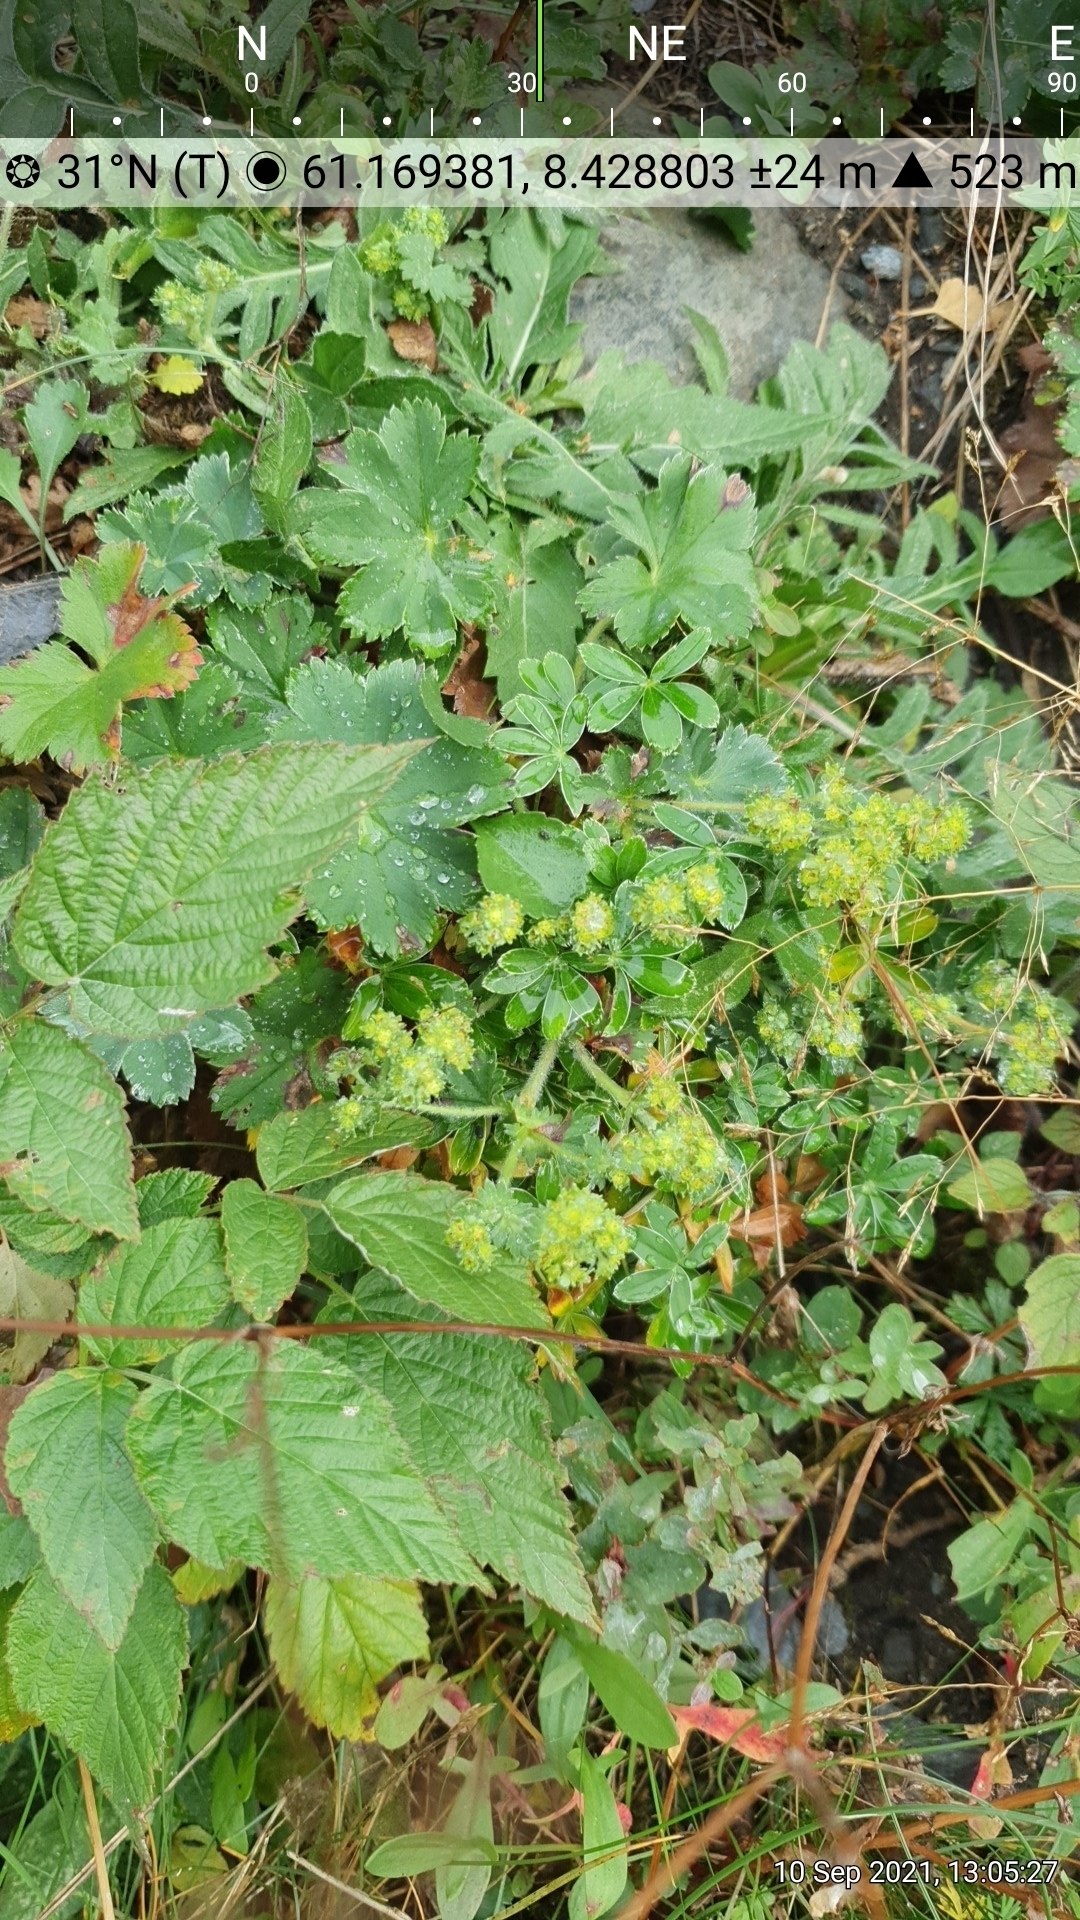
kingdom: Plantae
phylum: Tracheophyta
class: Magnoliopsida
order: Rosales
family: Rosaceae
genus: Alchemilla
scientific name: Alchemilla glaucescens
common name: Silky lady's mantle
